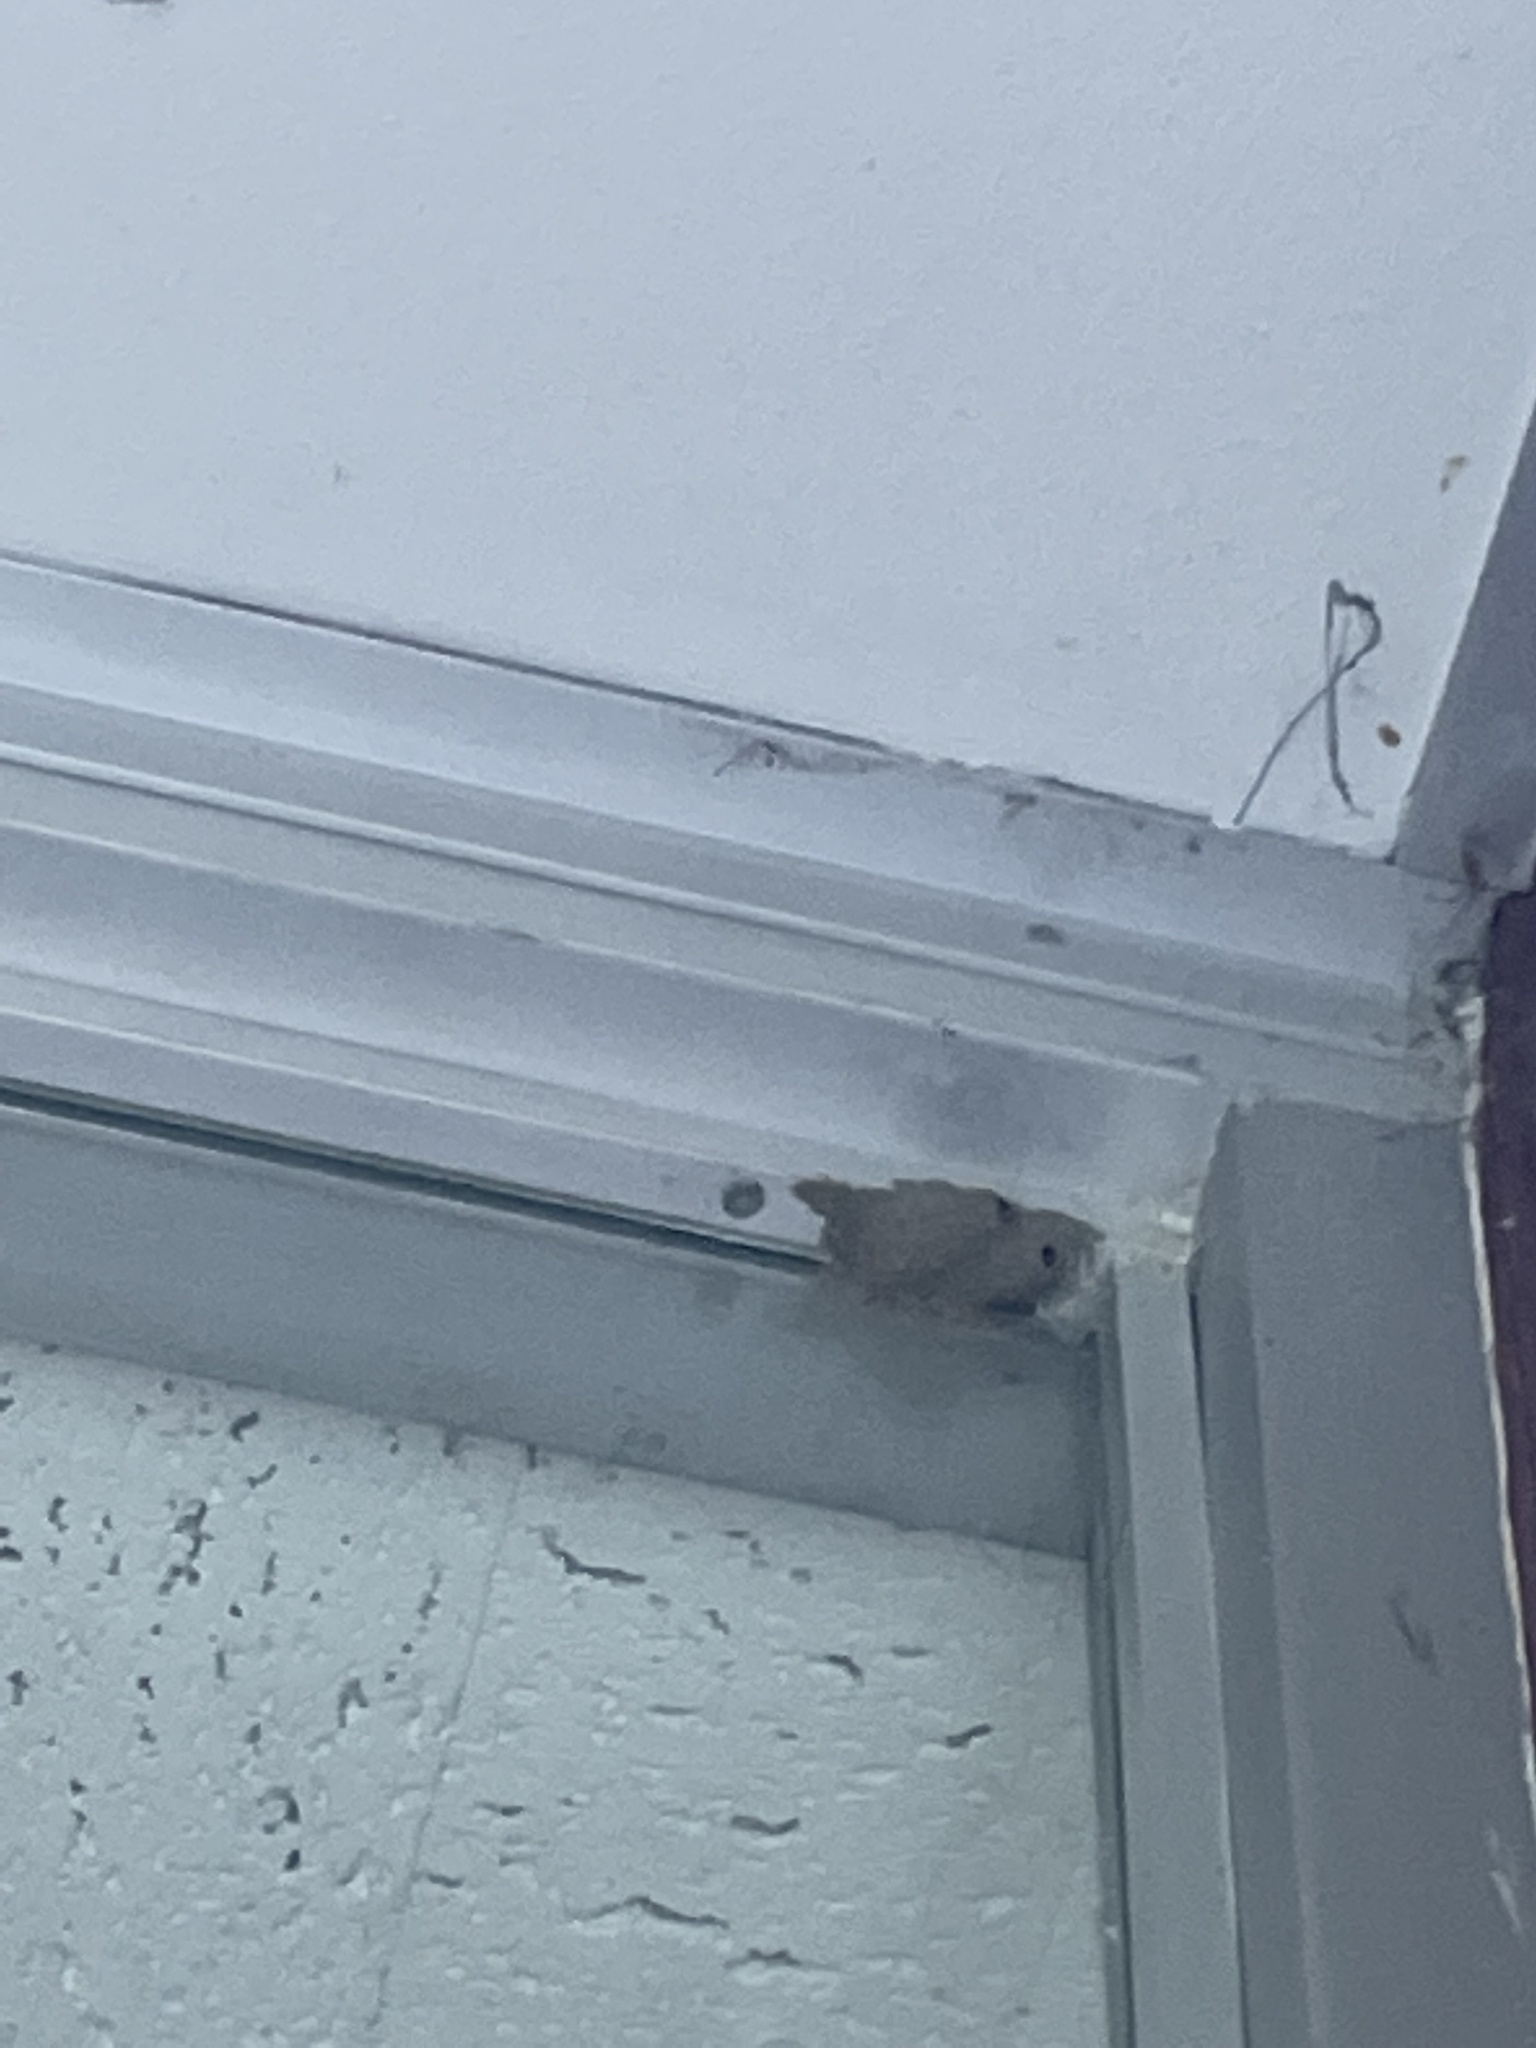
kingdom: Animalia
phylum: Arthropoda
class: Insecta
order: Hymenoptera
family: Sphecidae
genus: Sceliphron
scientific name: Sceliphron caementarium
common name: Mud dauber
